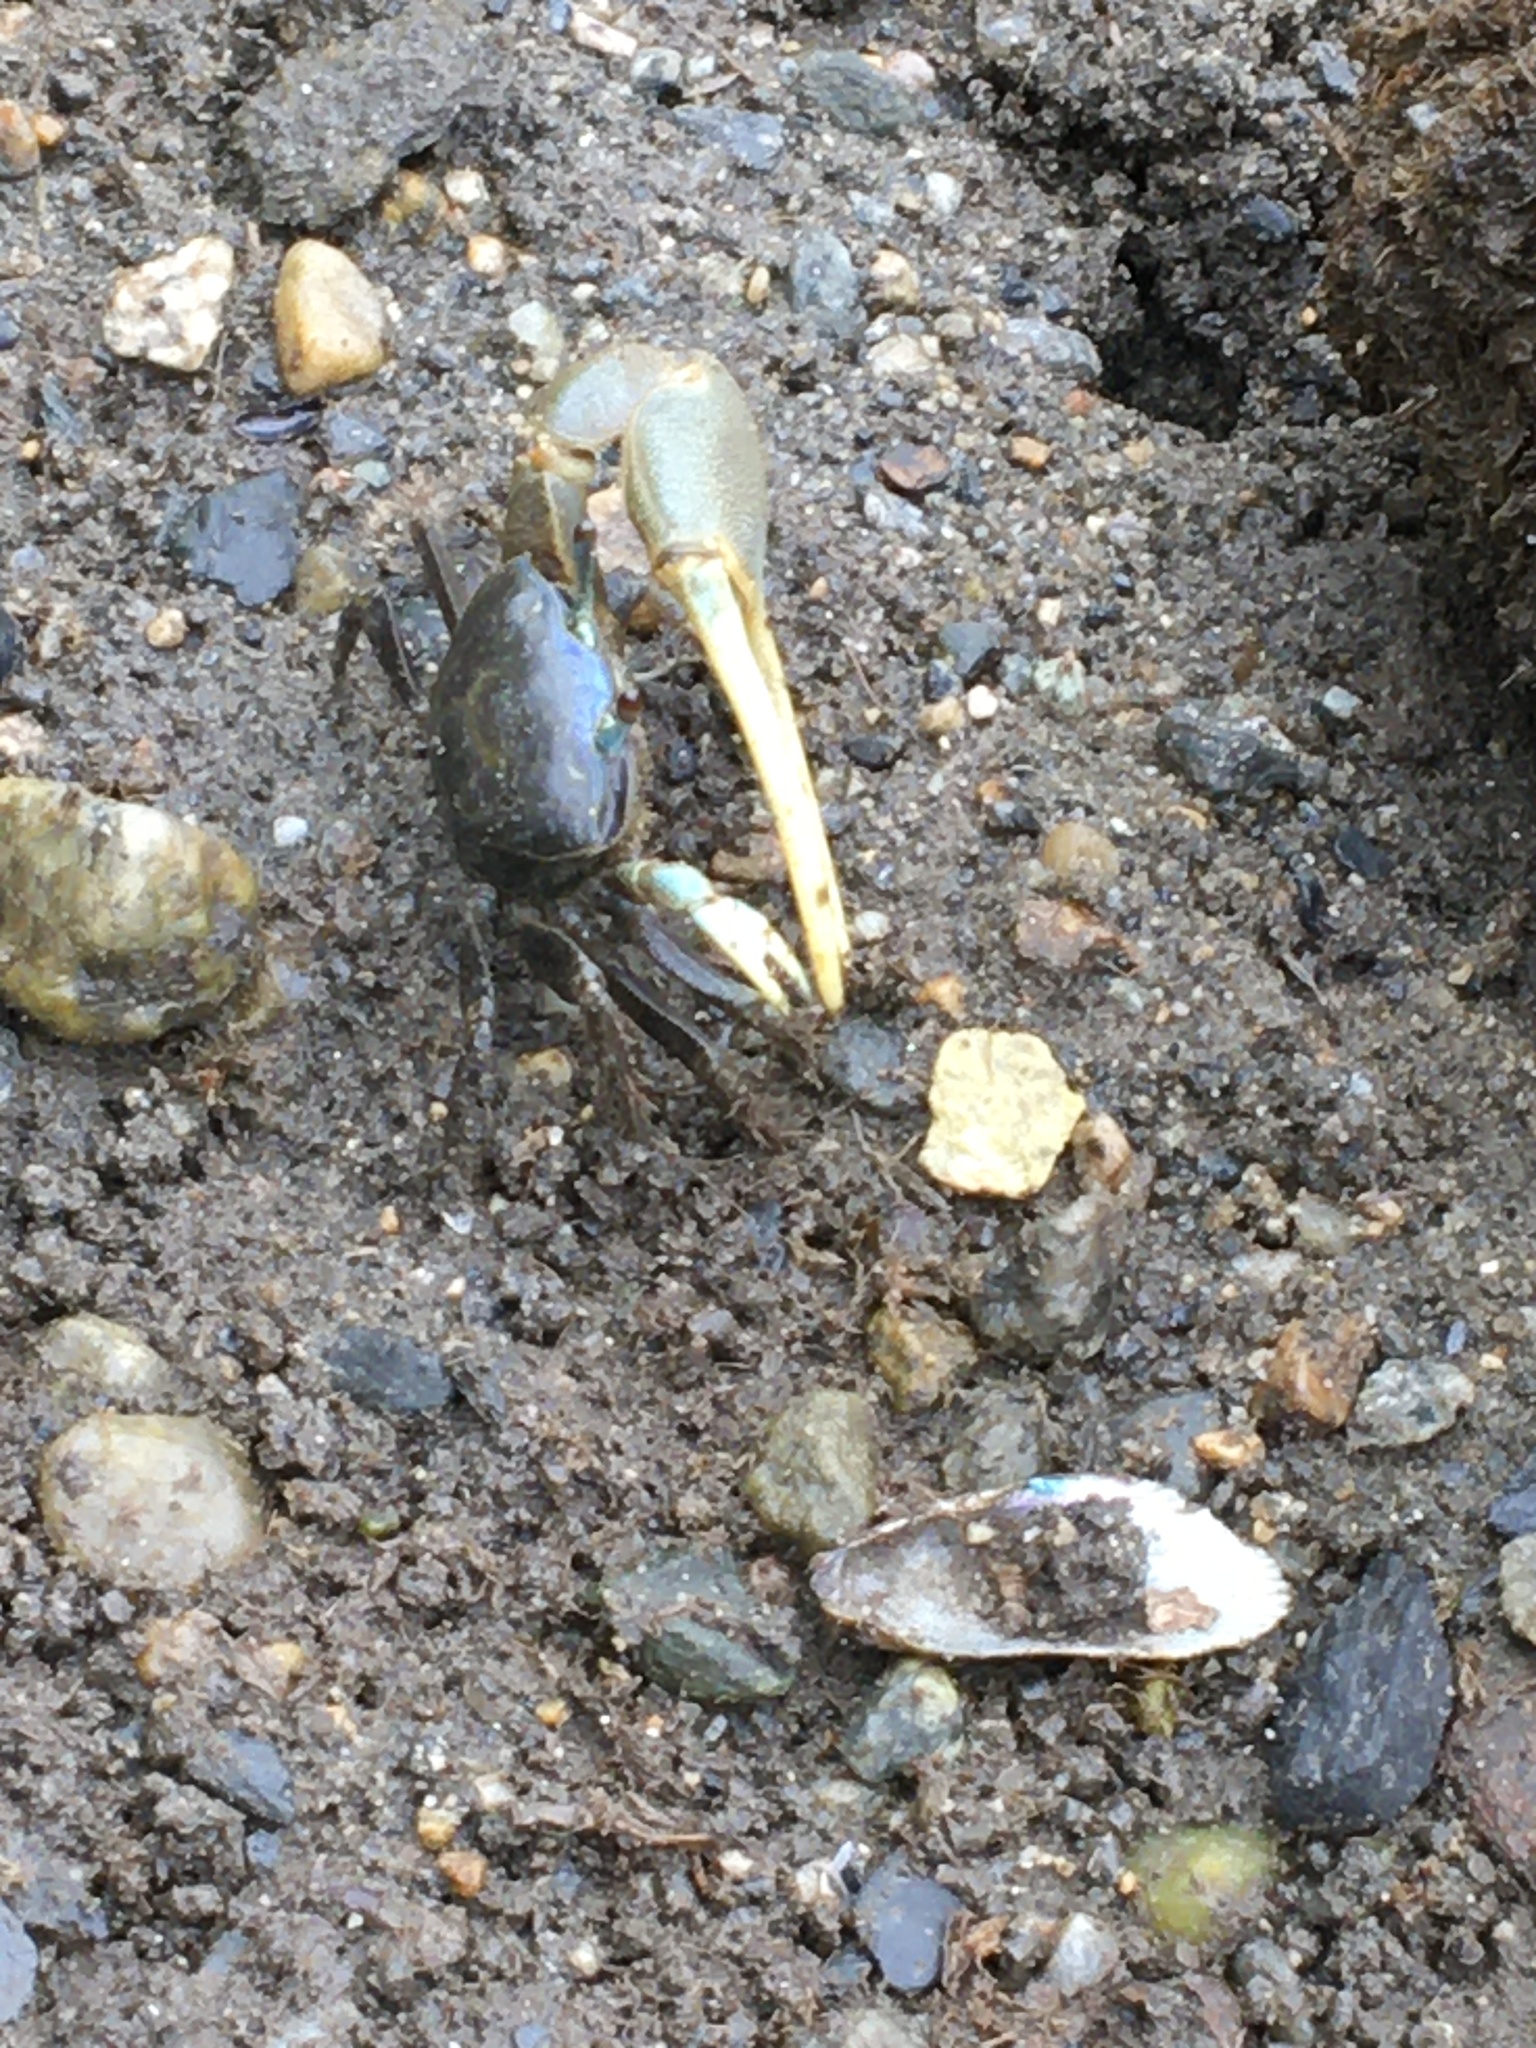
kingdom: Animalia
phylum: Arthropoda
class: Malacostraca
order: Decapoda
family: Ocypodidae
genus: Minuca
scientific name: Minuca pugnax
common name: Mud fiddler crab
